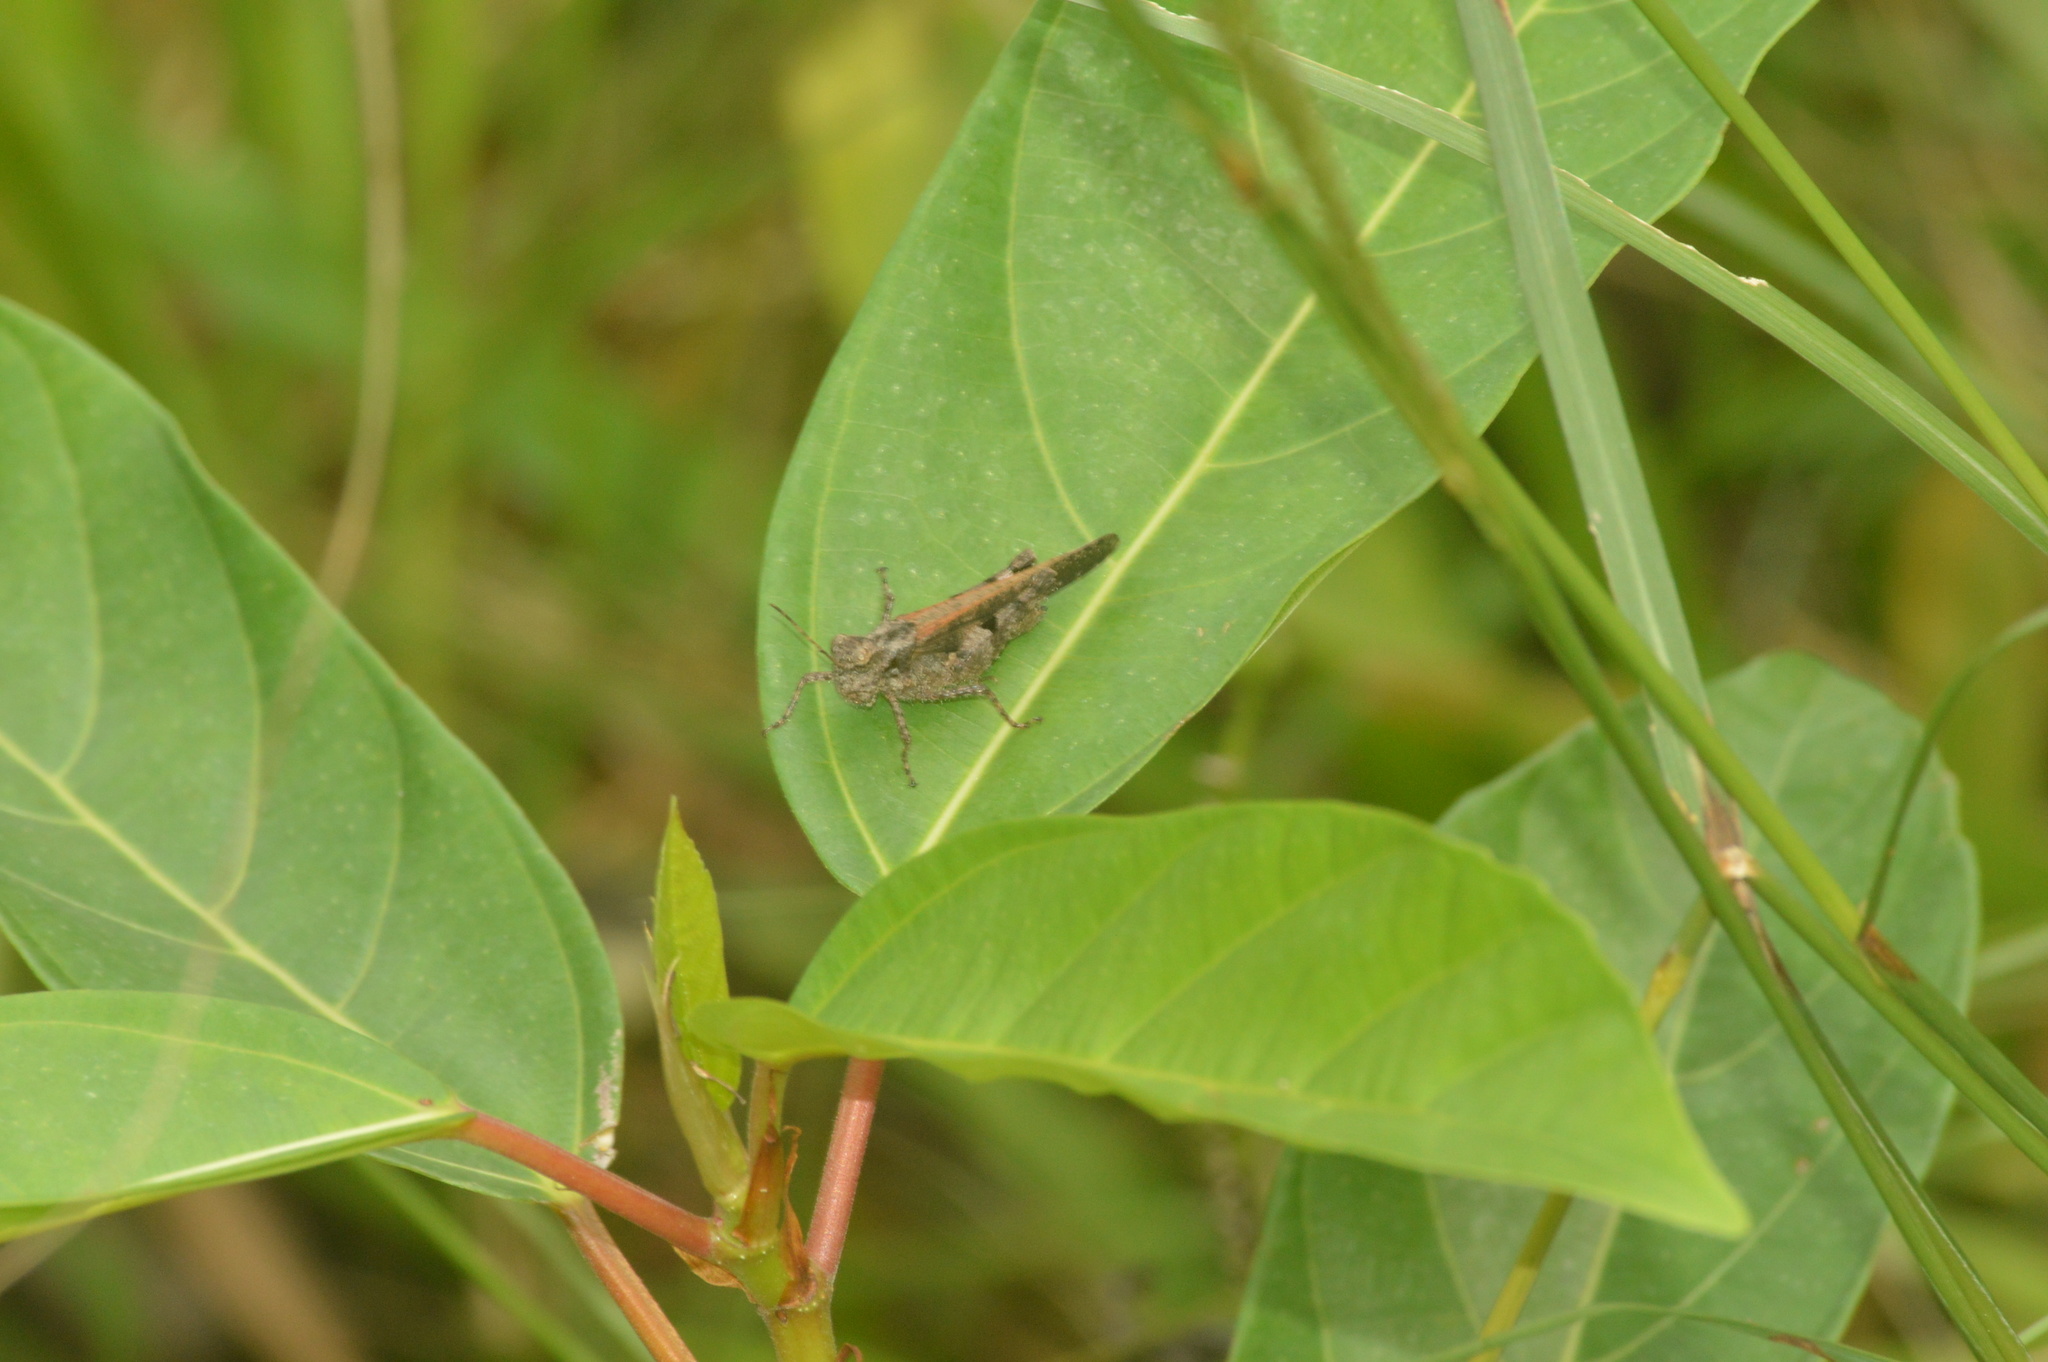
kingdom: Animalia
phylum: Arthropoda
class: Insecta
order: Orthoptera
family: Acrididae
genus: Trilophidia
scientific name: Trilophidia annulata
